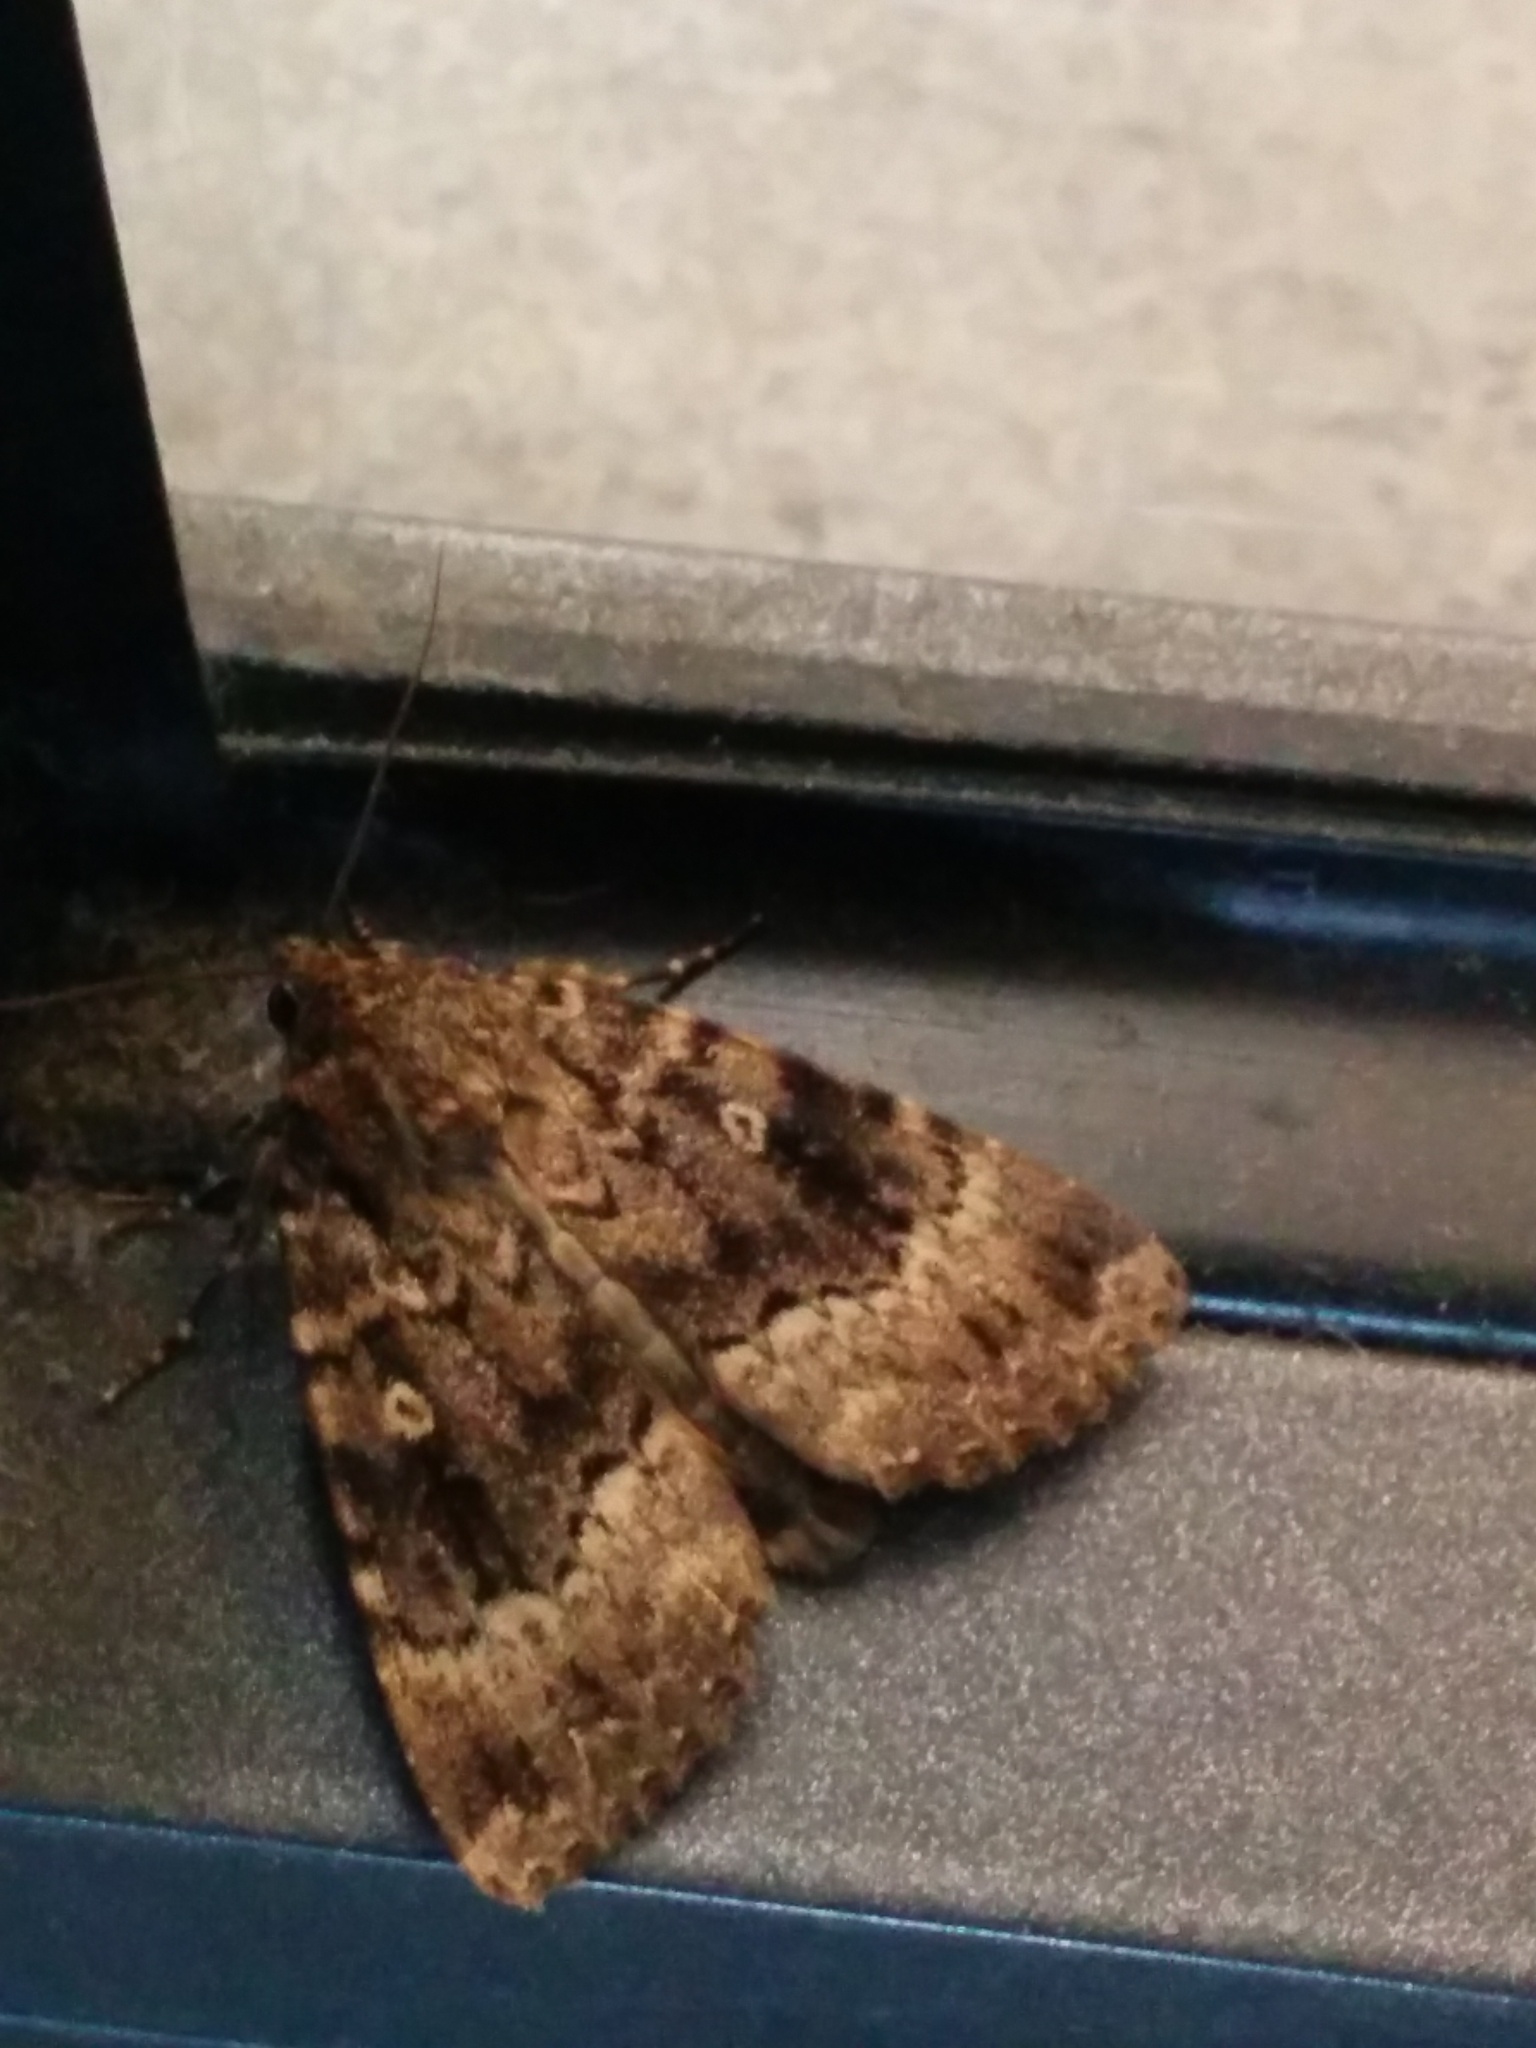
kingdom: Animalia
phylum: Arthropoda
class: Insecta
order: Lepidoptera
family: Noctuidae
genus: Amphipyra
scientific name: Amphipyra berbera
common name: Svensson's copper underwing
